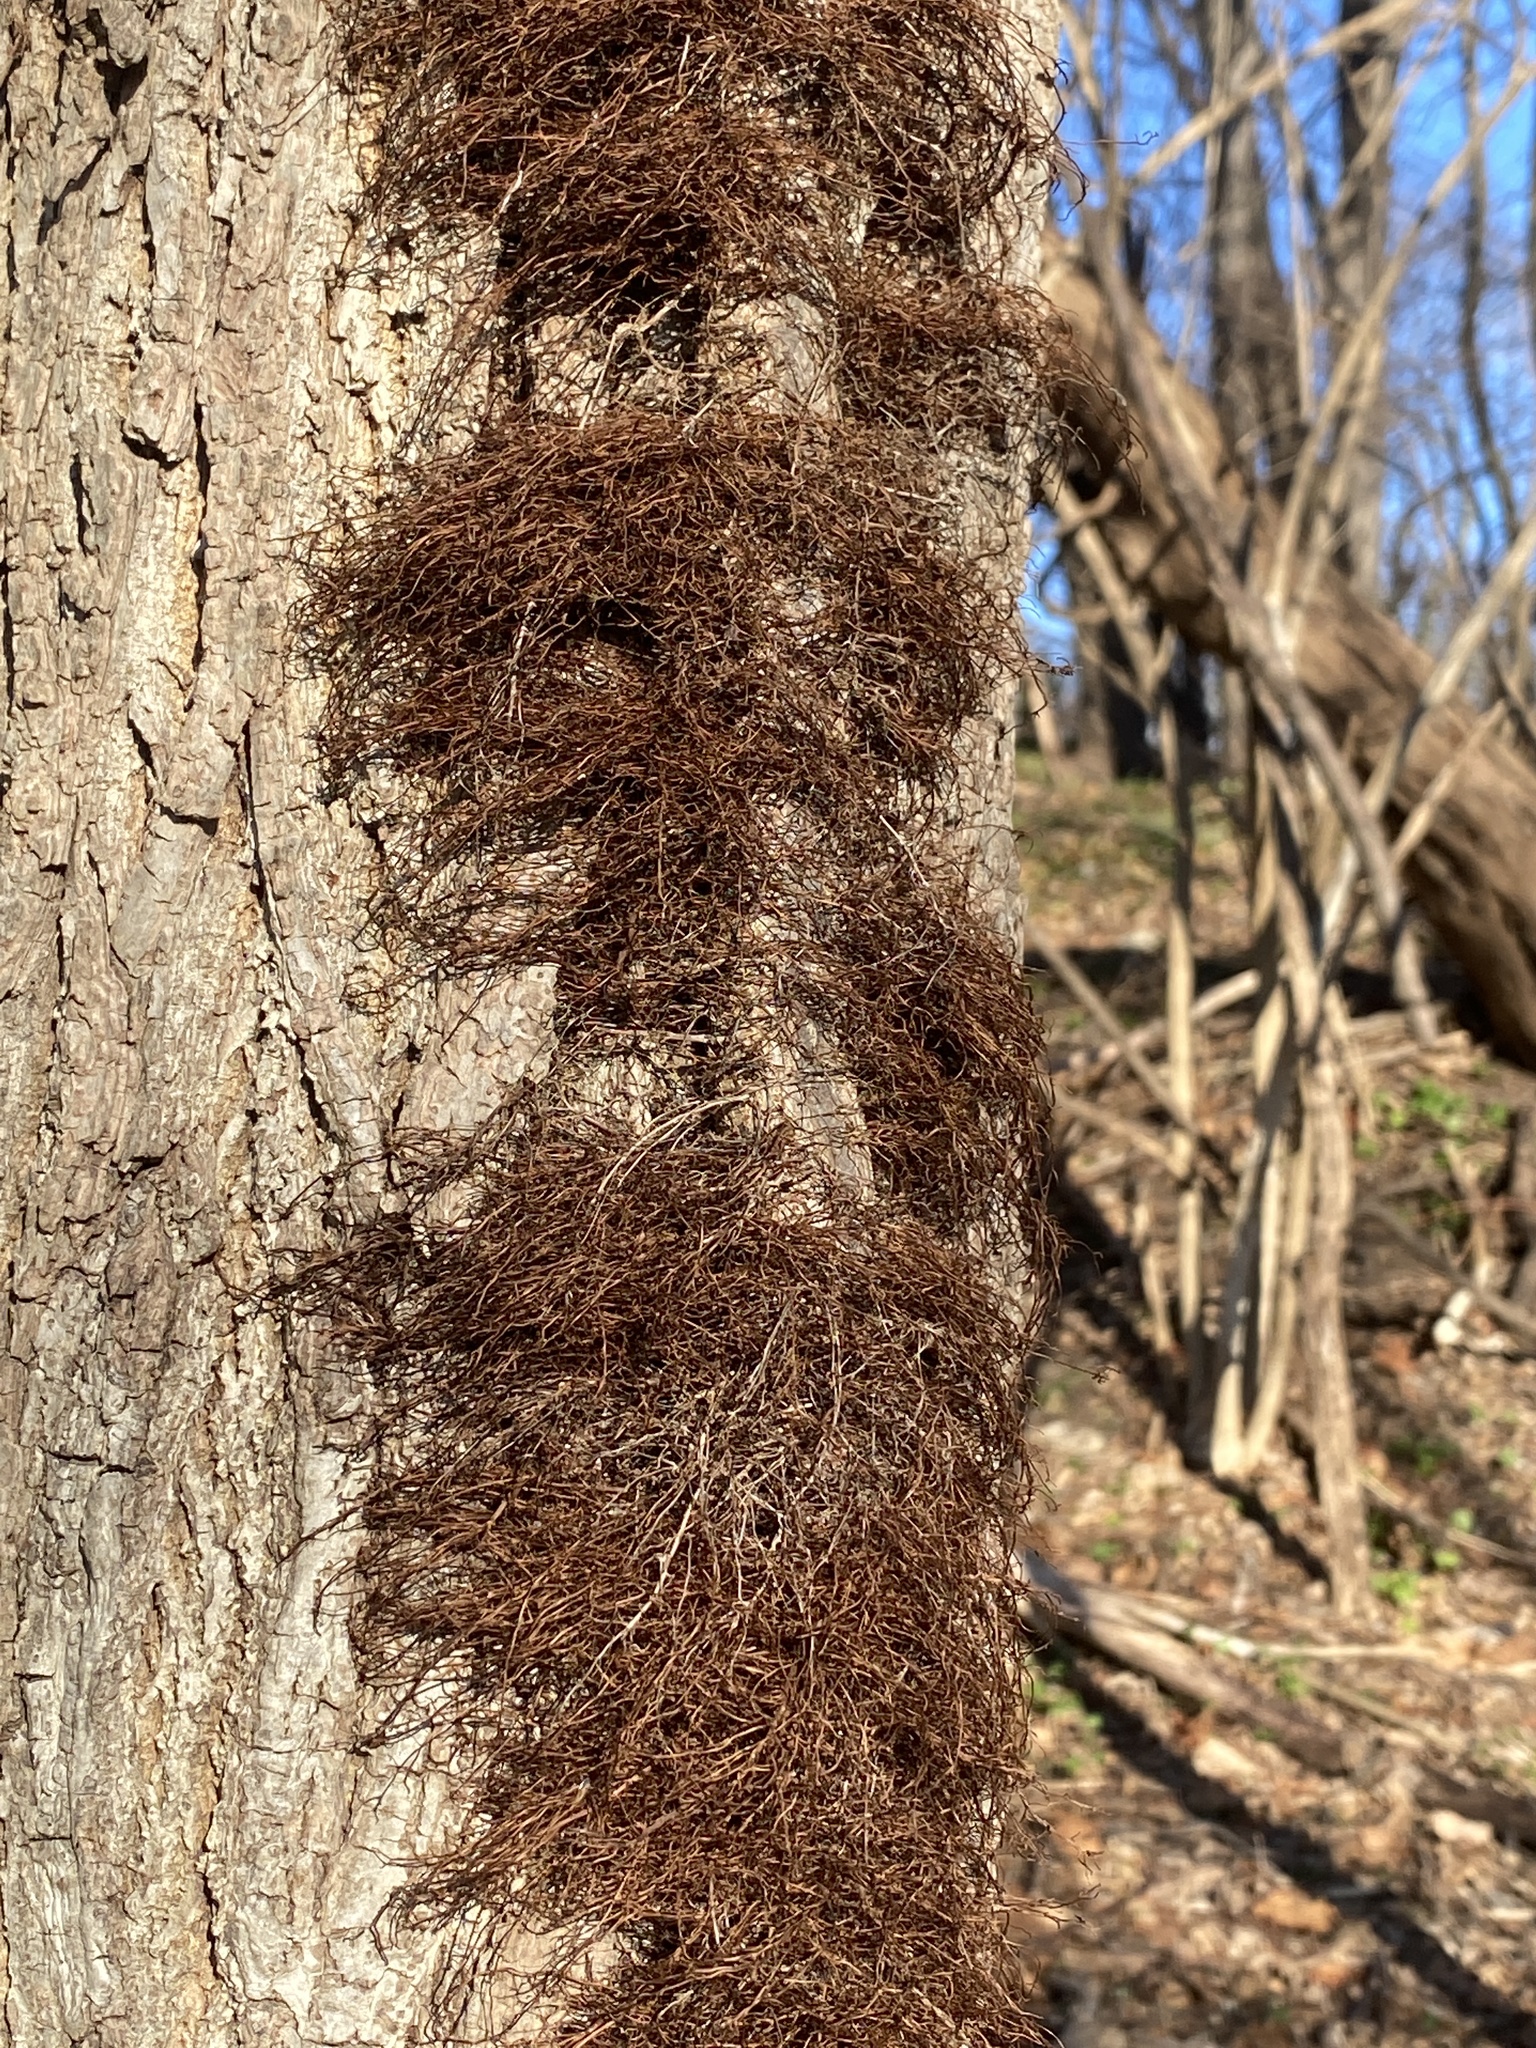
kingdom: Plantae
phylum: Tracheophyta
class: Magnoliopsida
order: Sapindales
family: Anacardiaceae
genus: Toxicodendron
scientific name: Toxicodendron radicans
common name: Poison ivy
